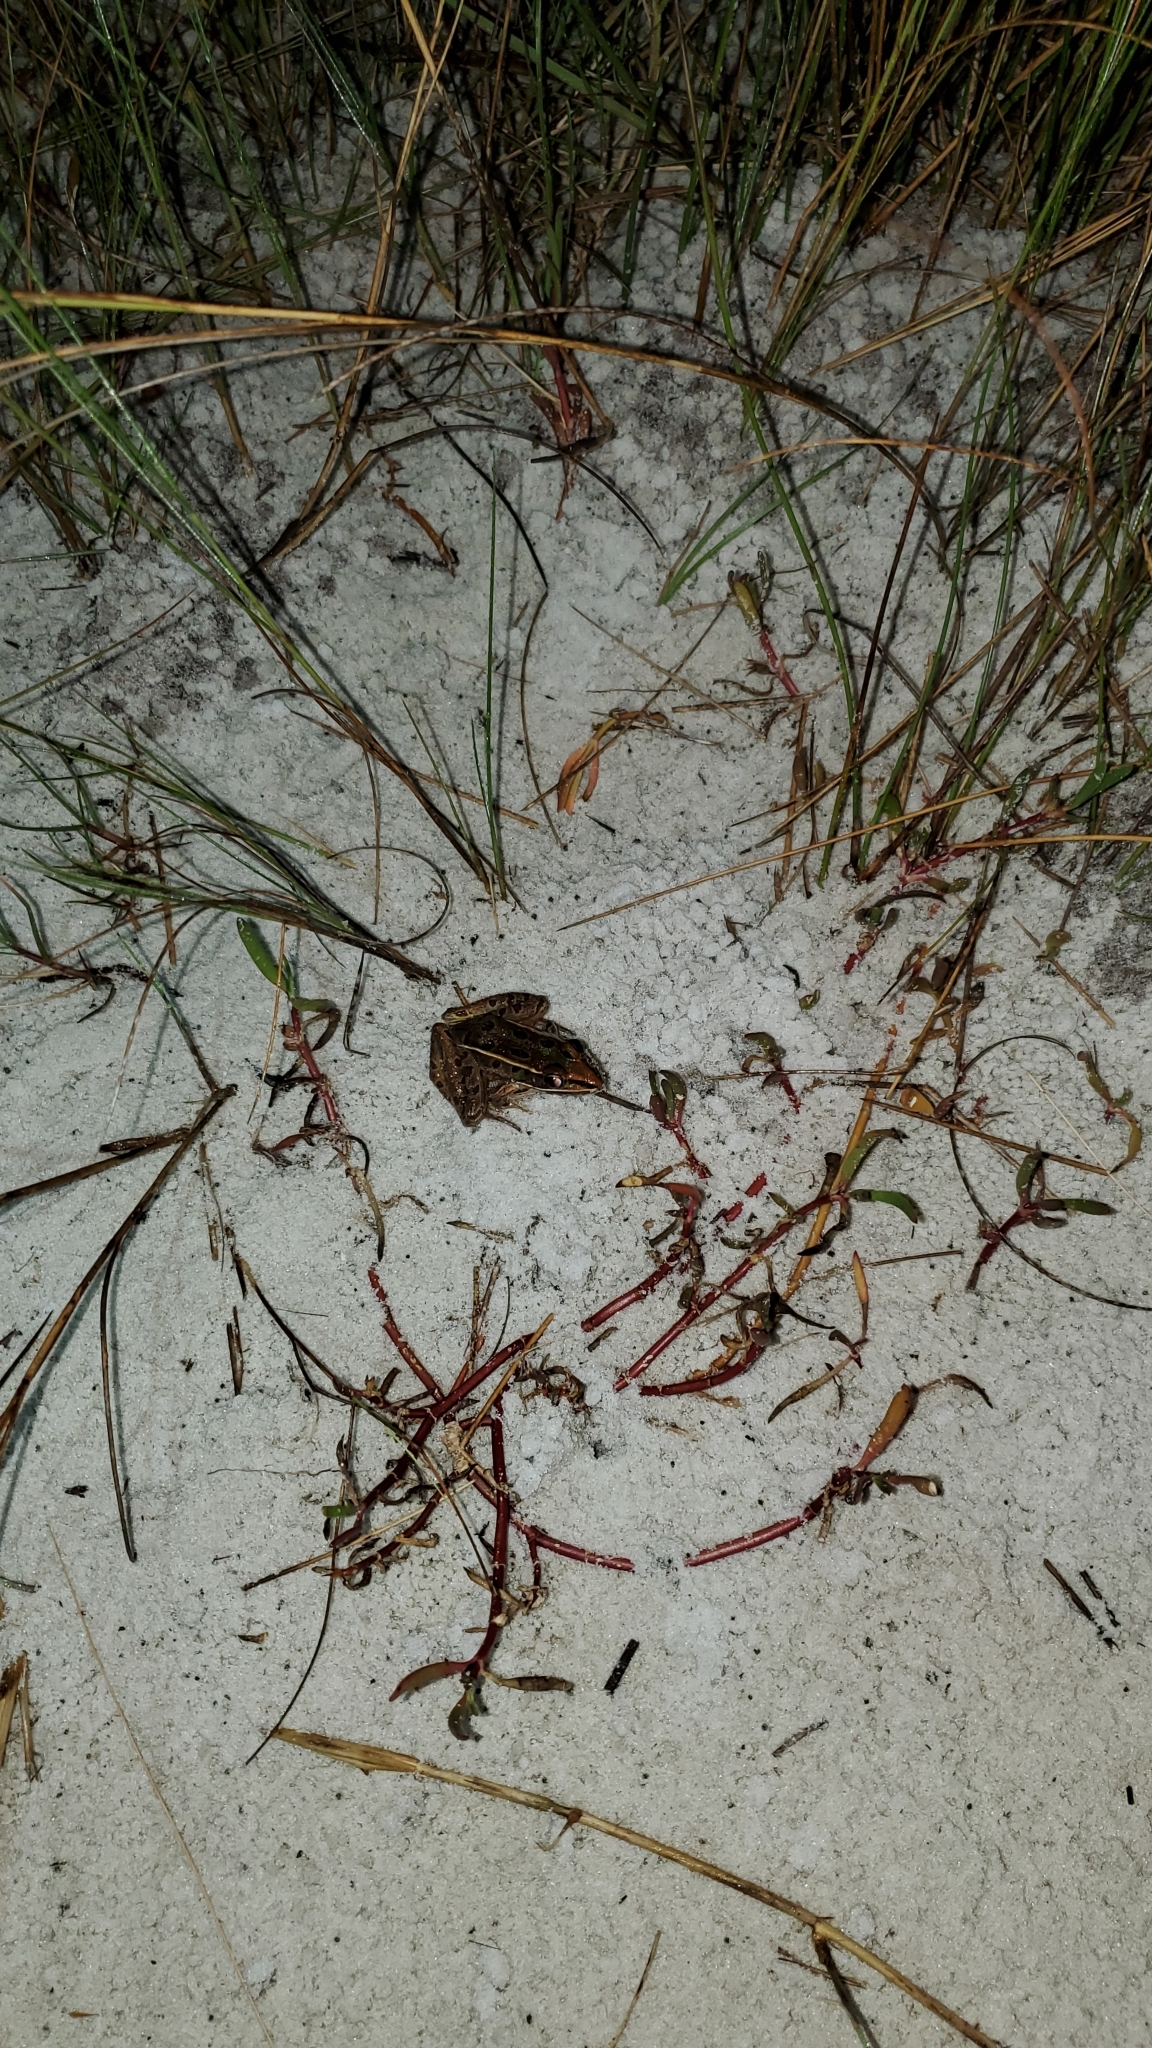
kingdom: Animalia
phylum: Chordata
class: Amphibia
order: Anura
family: Ranidae
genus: Lithobates
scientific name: Lithobates sphenocephalus
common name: Southern leopard frog
